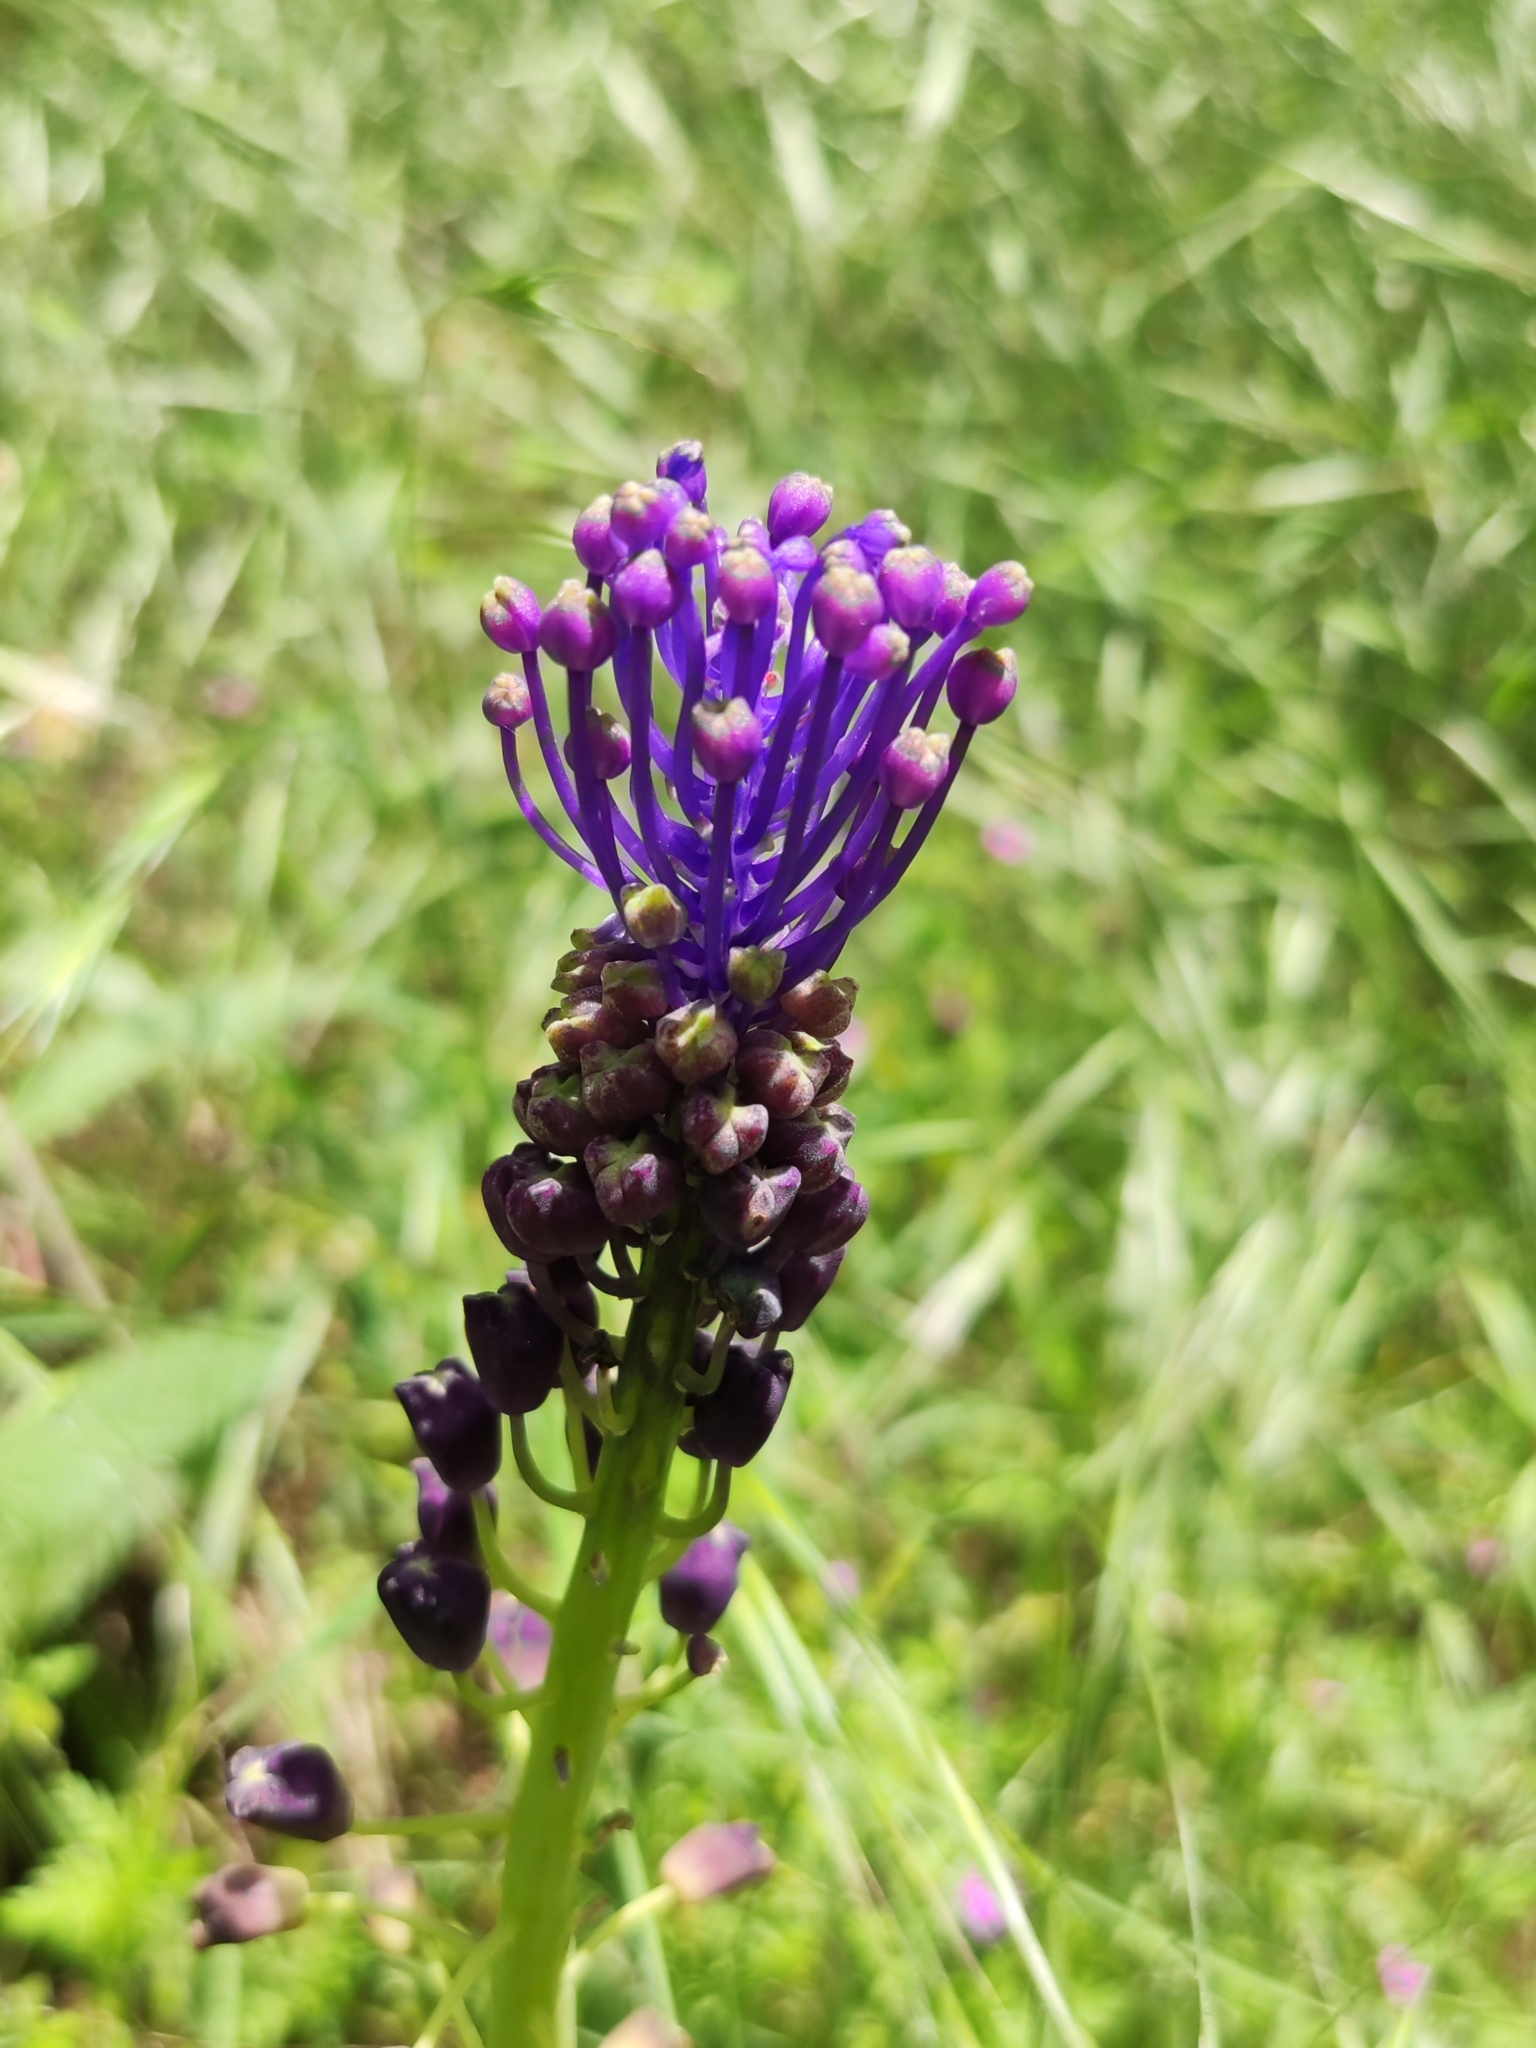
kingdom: Plantae
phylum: Tracheophyta
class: Liliopsida
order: Asparagales
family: Asparagaceae
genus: Muscari
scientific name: Muscari comosum
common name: Tassel hyacinth
